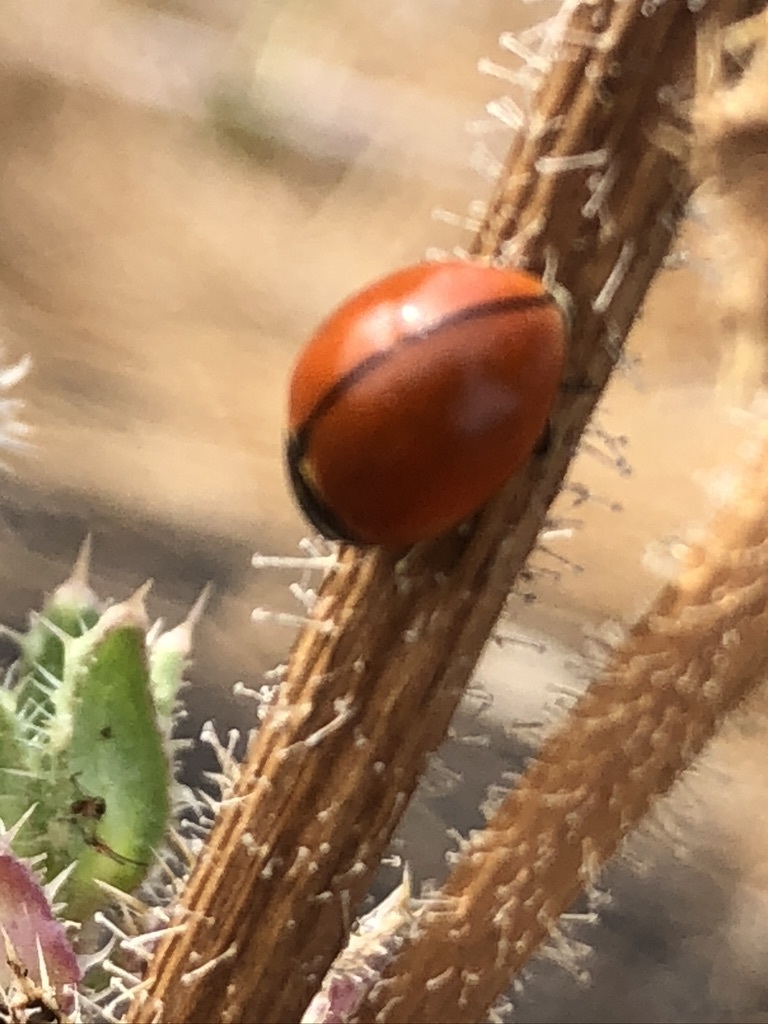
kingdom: Animalia
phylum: Arthropoda
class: Insecta
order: Coleoptera
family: Coccinellidae
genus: Coccinella
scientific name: Coccinella californica
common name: Lady beetle
